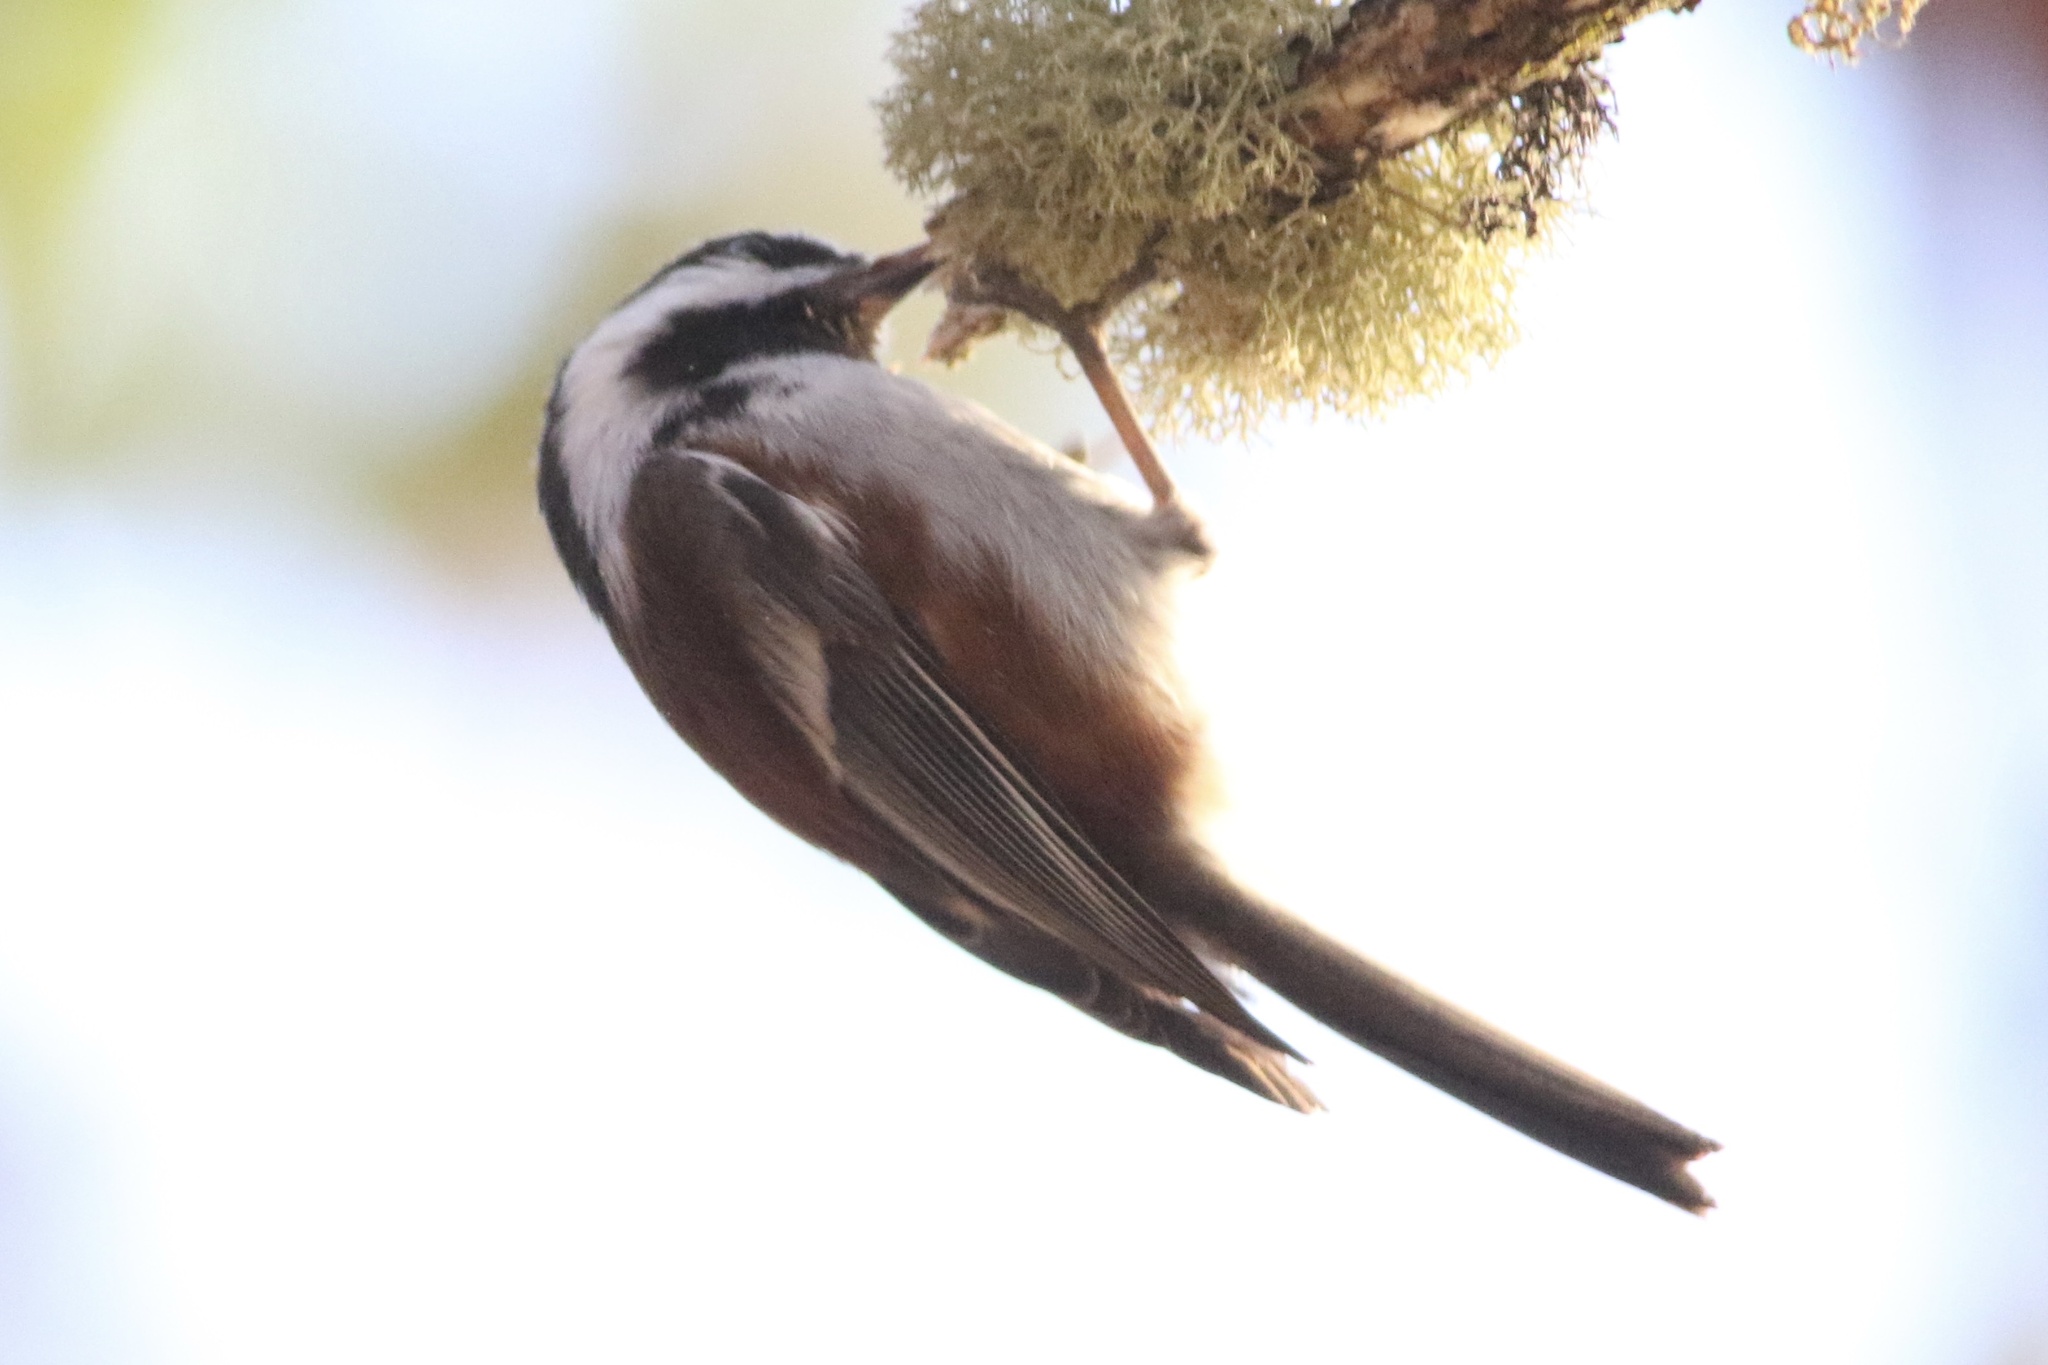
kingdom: Animalia
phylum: Chordata
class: Aves
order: Passeriformes
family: Paridae
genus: Poecile
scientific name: Poecile rufescens
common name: Chestnut-backed chickadee
